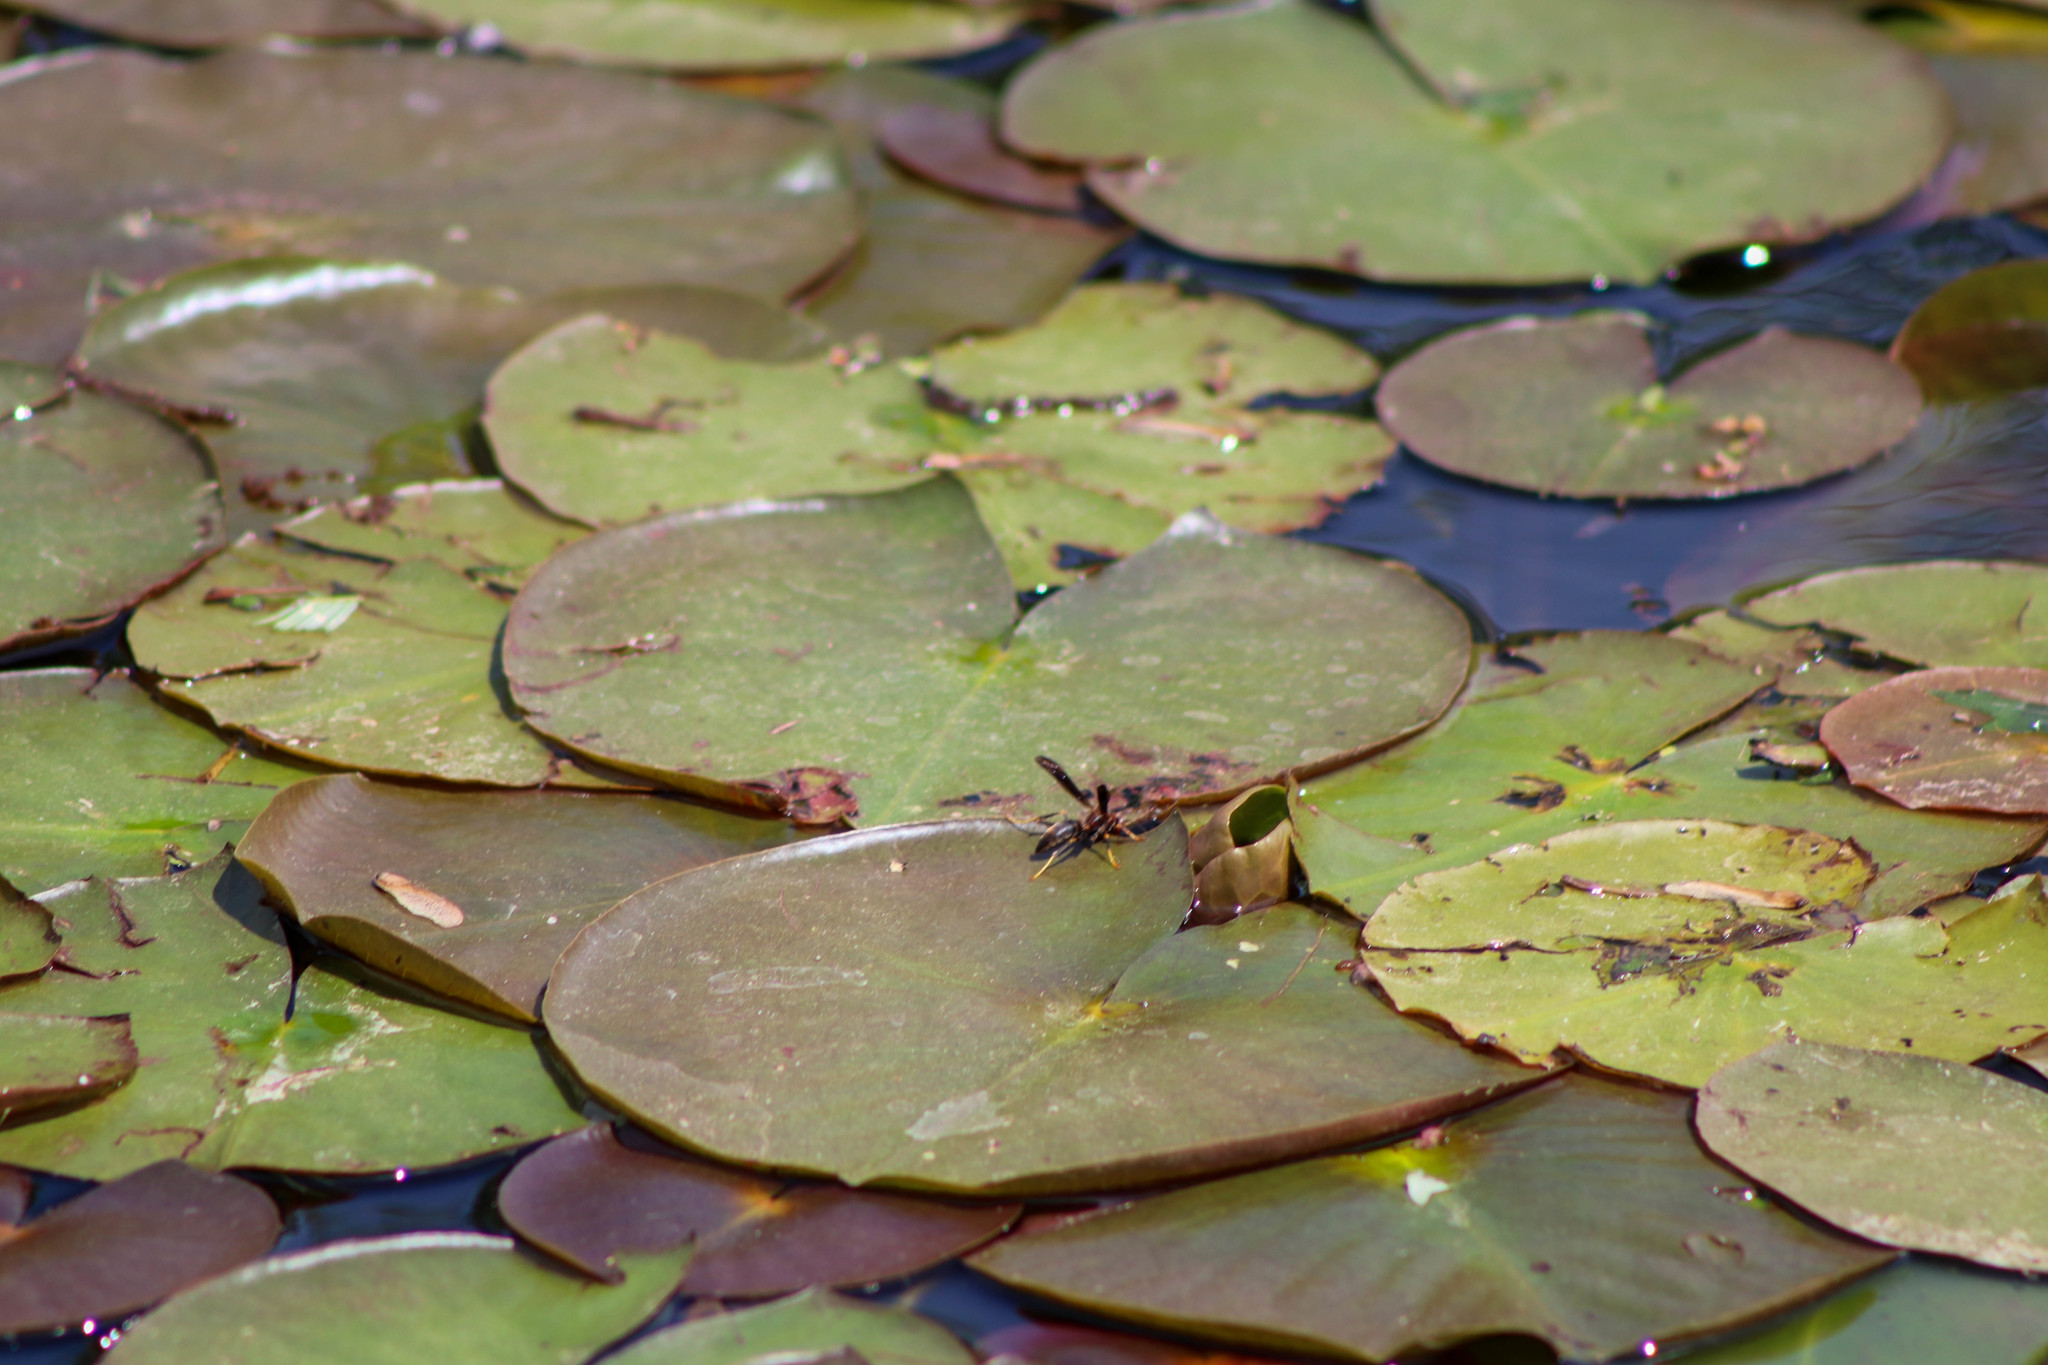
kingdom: Animalia
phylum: Arthropoda
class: Insecta
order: Hymenoptera
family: Vespidae
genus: Fuscopolistes
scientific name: Fuscopolistes
